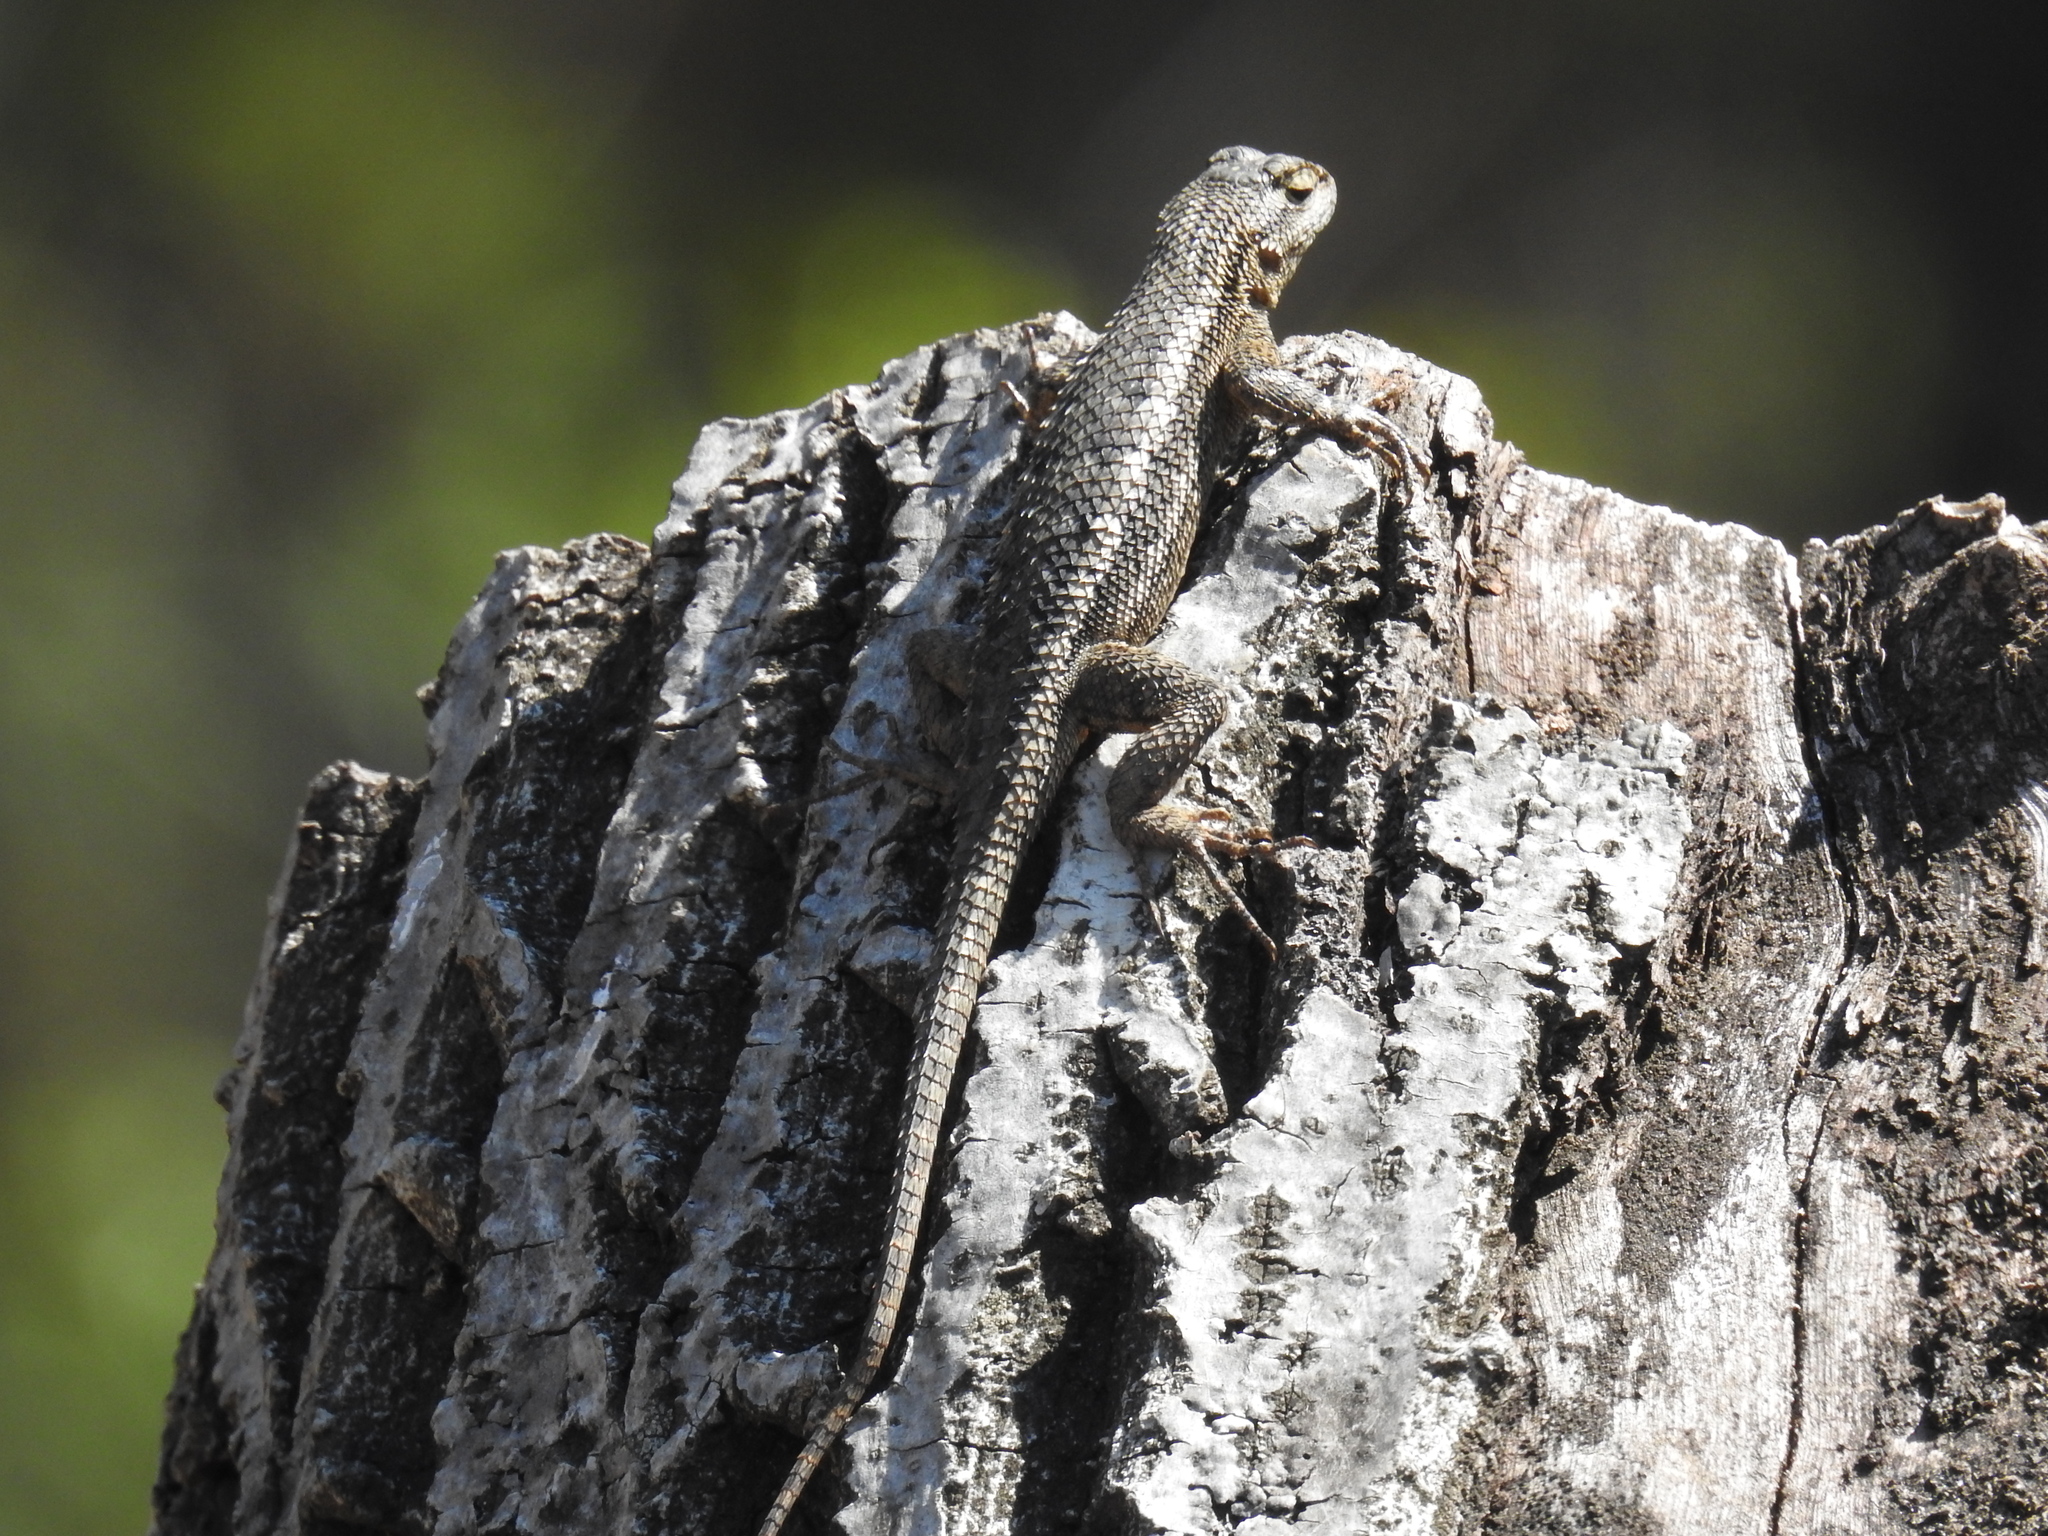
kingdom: Animalia
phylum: Chordata
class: Squamata
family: Phrynosomatidae
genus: Sceloporus
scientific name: Sceloporus occidentalis
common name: Western fence lizard
